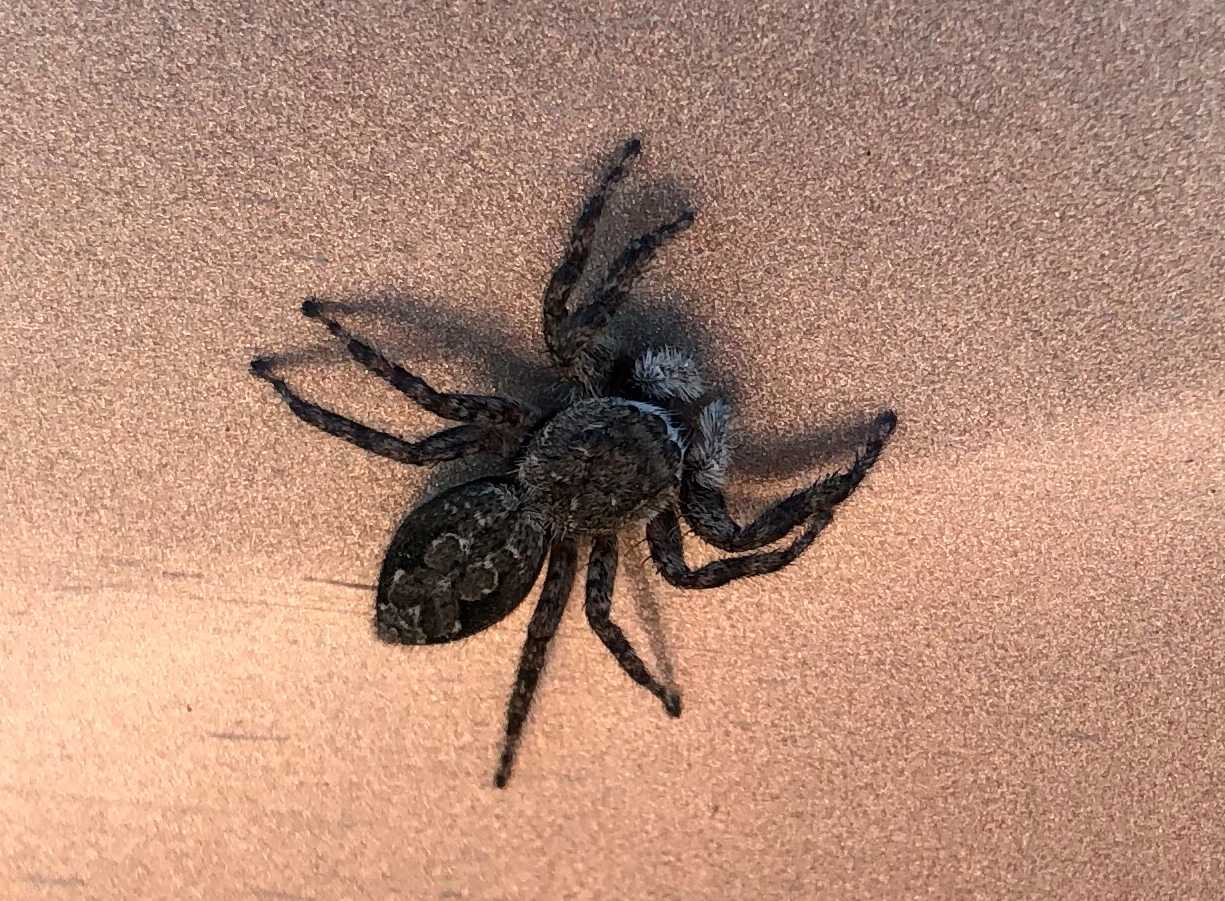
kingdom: Animalia
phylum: Arthropoda
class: Arachnida
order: Araneae
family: Salticidae
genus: Platycryptus
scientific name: Platycryptus undatus
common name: Tan jumping spider
